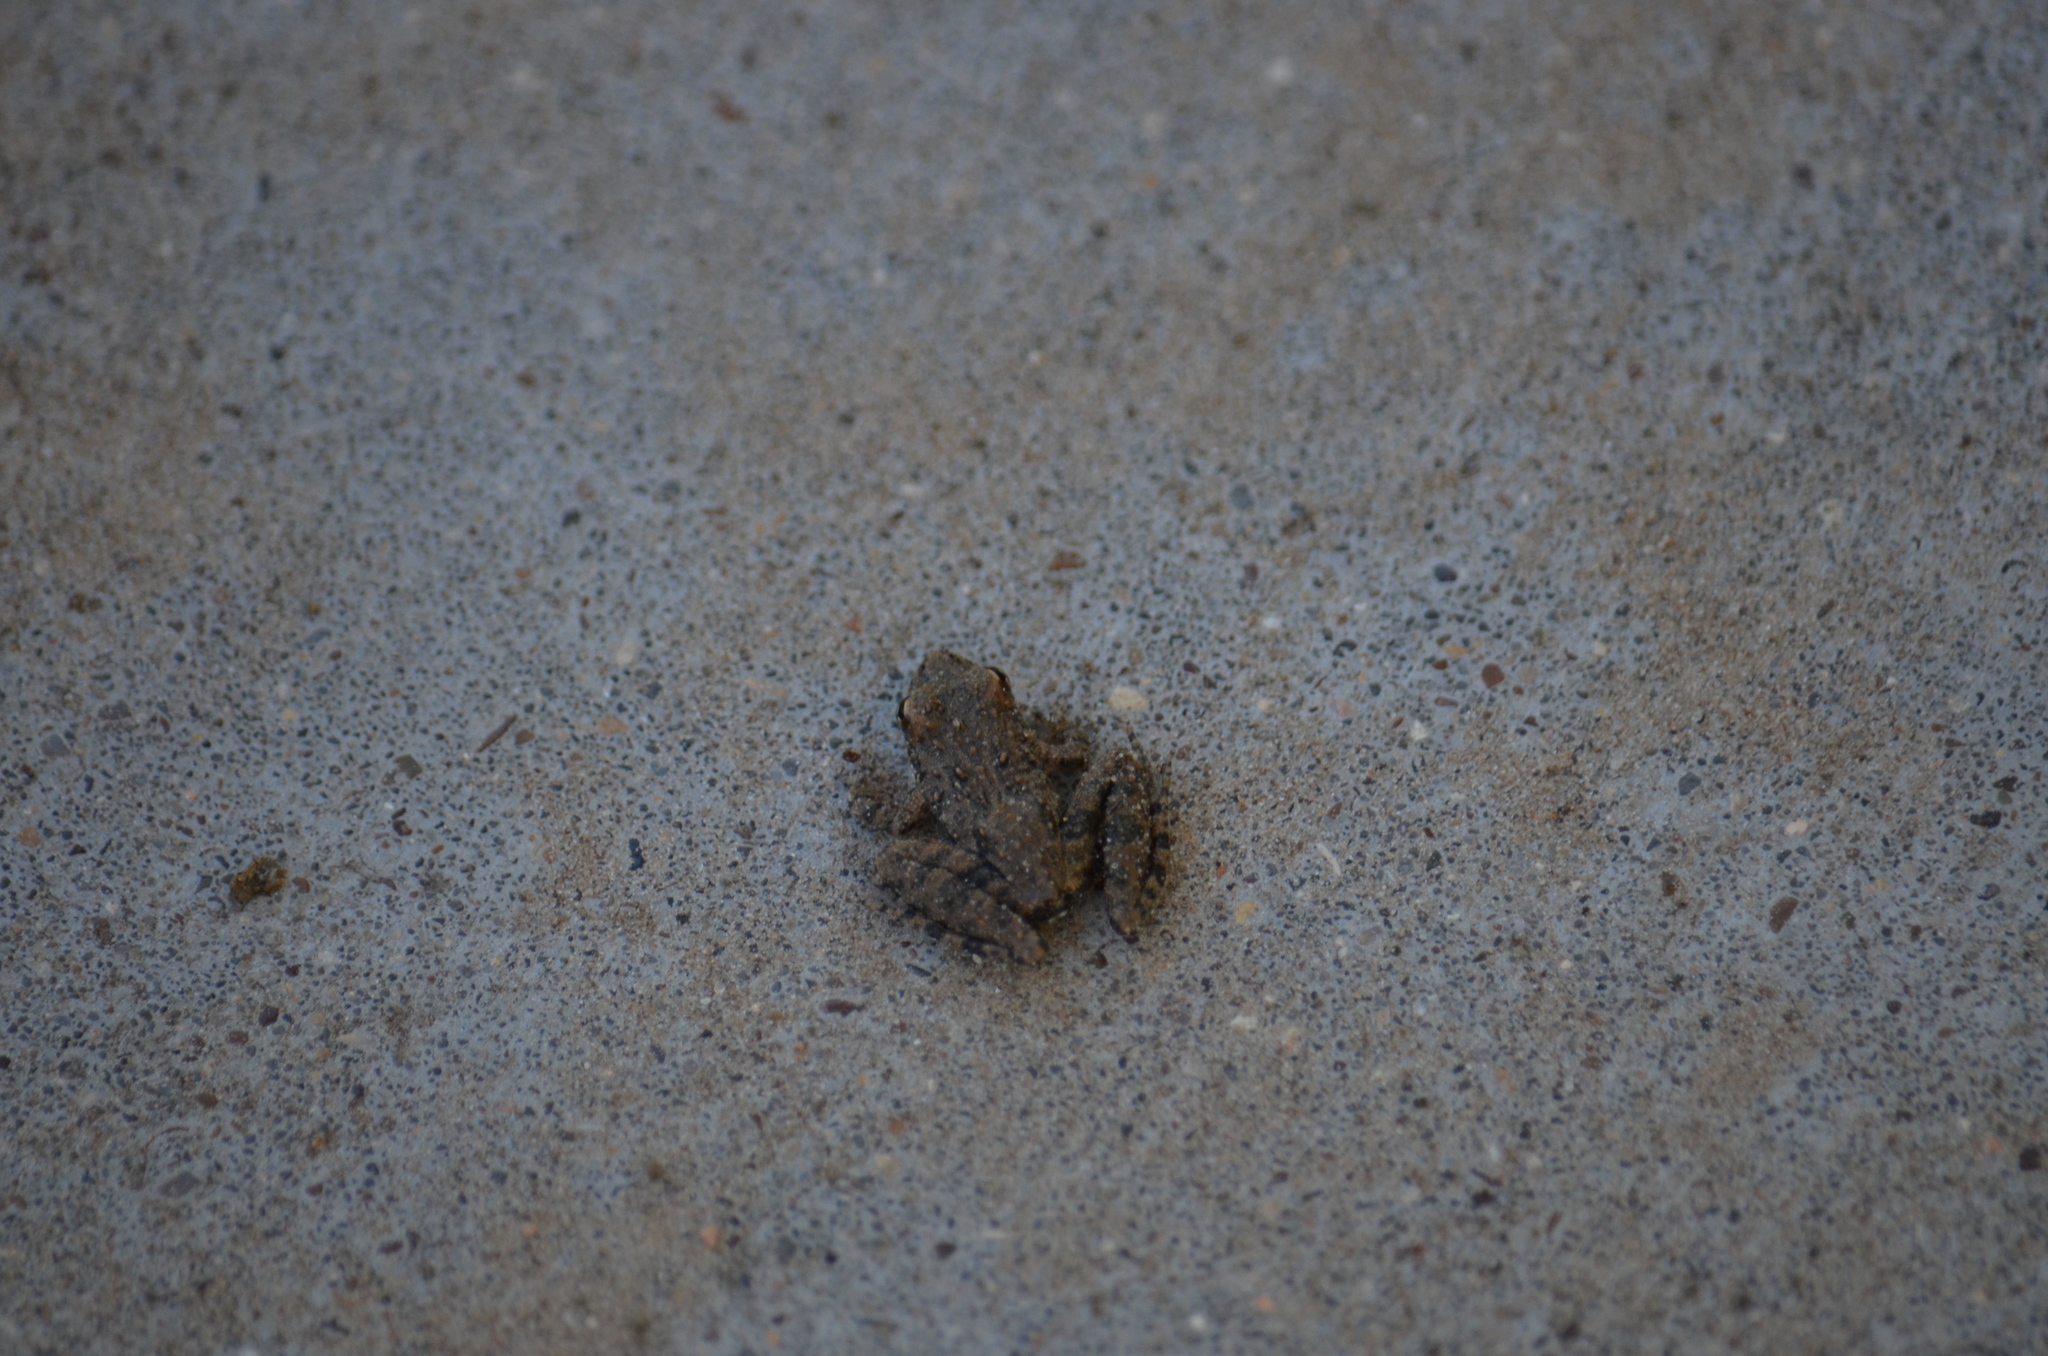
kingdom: Animalia
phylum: Chordata
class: Amphibia
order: Anura
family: Hylidae
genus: Acris
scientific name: Acris blanchardi
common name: Blanchard's cricket frog
